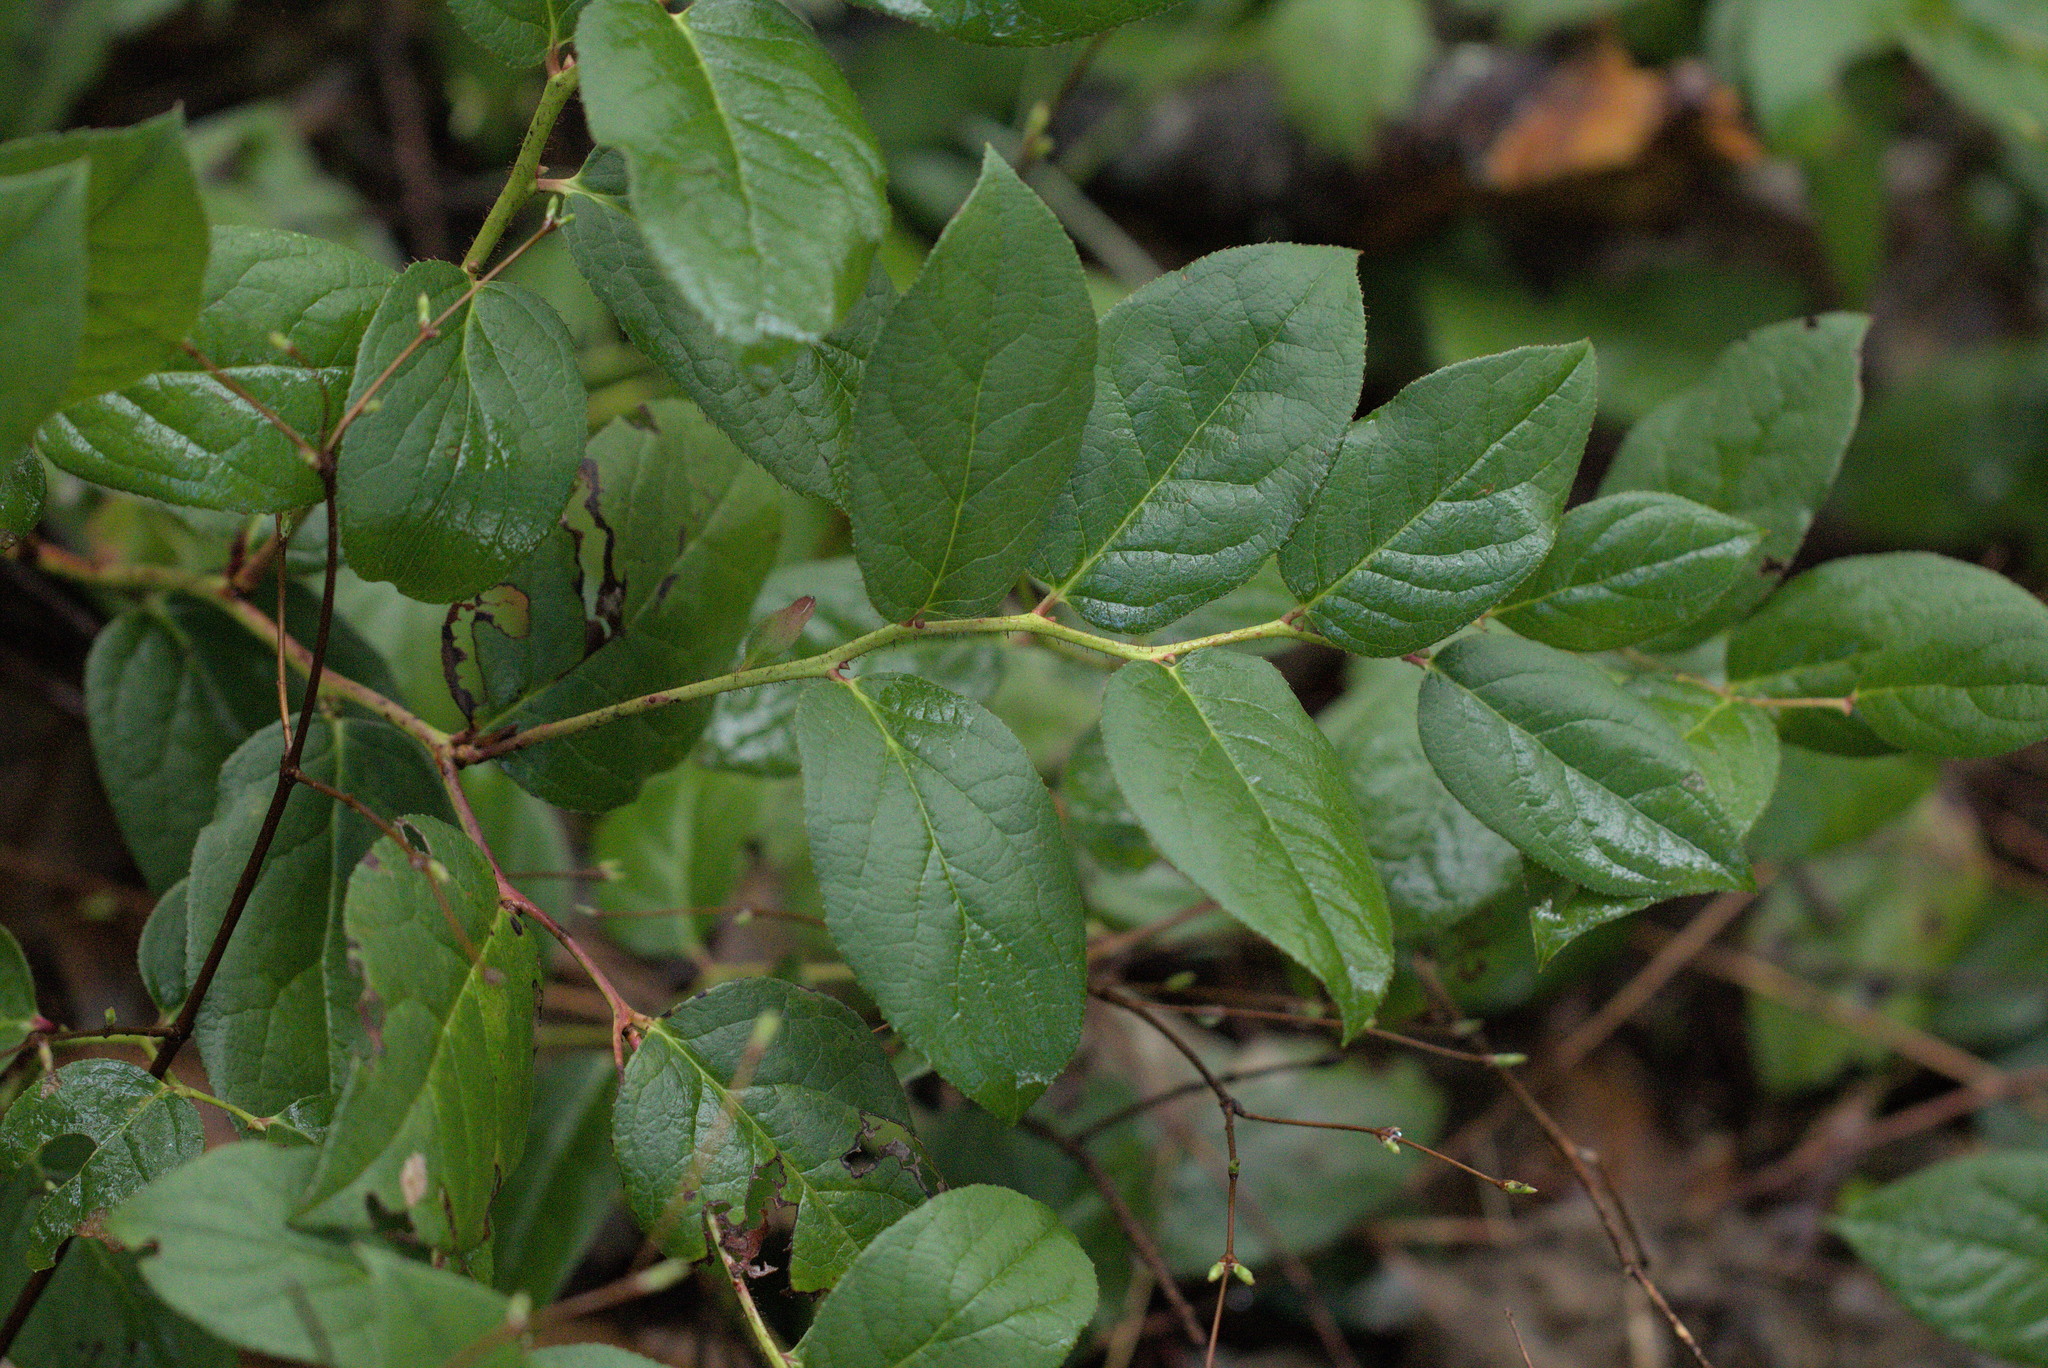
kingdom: Plantae
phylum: Tracheophyta
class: Magnoliopsida
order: Ericales
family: Ericaceae
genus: Gaultheria
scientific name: Gaultheria shallon
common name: Shallon
